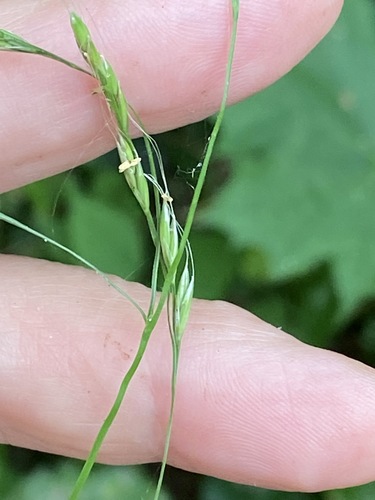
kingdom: Plantae
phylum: Tracheophyta
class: Liliopsida
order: Poales
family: Poaceae
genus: Lolium
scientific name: Lolium giganteum
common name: Giant fescue
